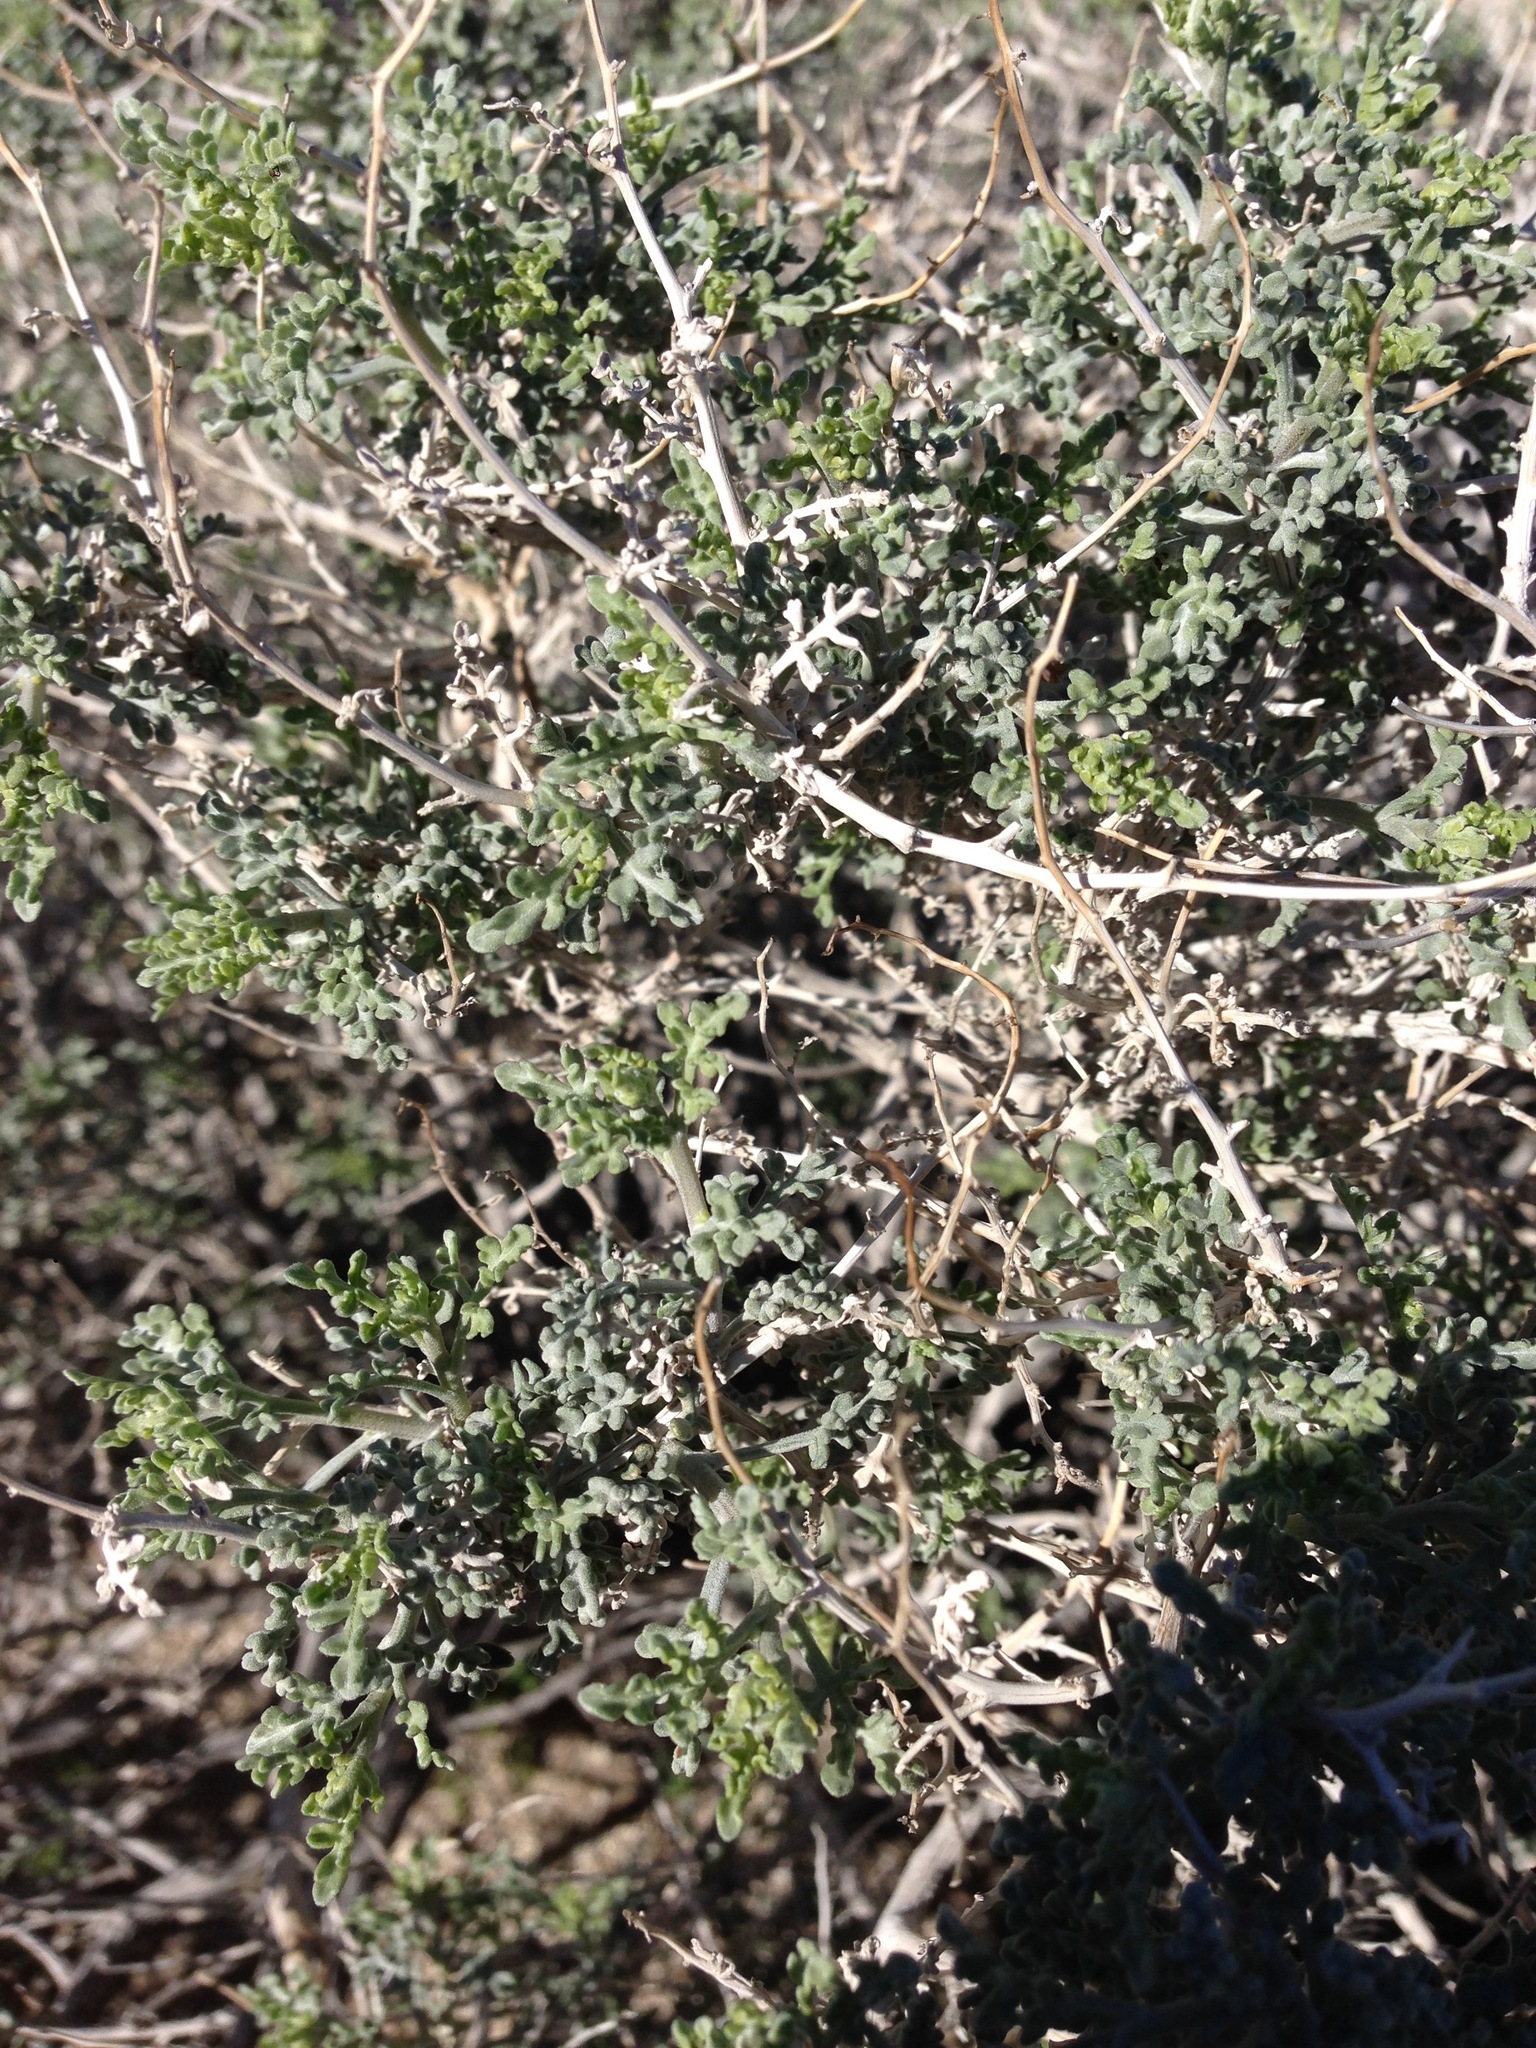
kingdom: Plantae
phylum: Tracheophyta
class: Magnoliopsida
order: Asterales
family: Asteraceae
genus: Ambrosia
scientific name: Ambrosia dumosa
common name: Bur-sage
